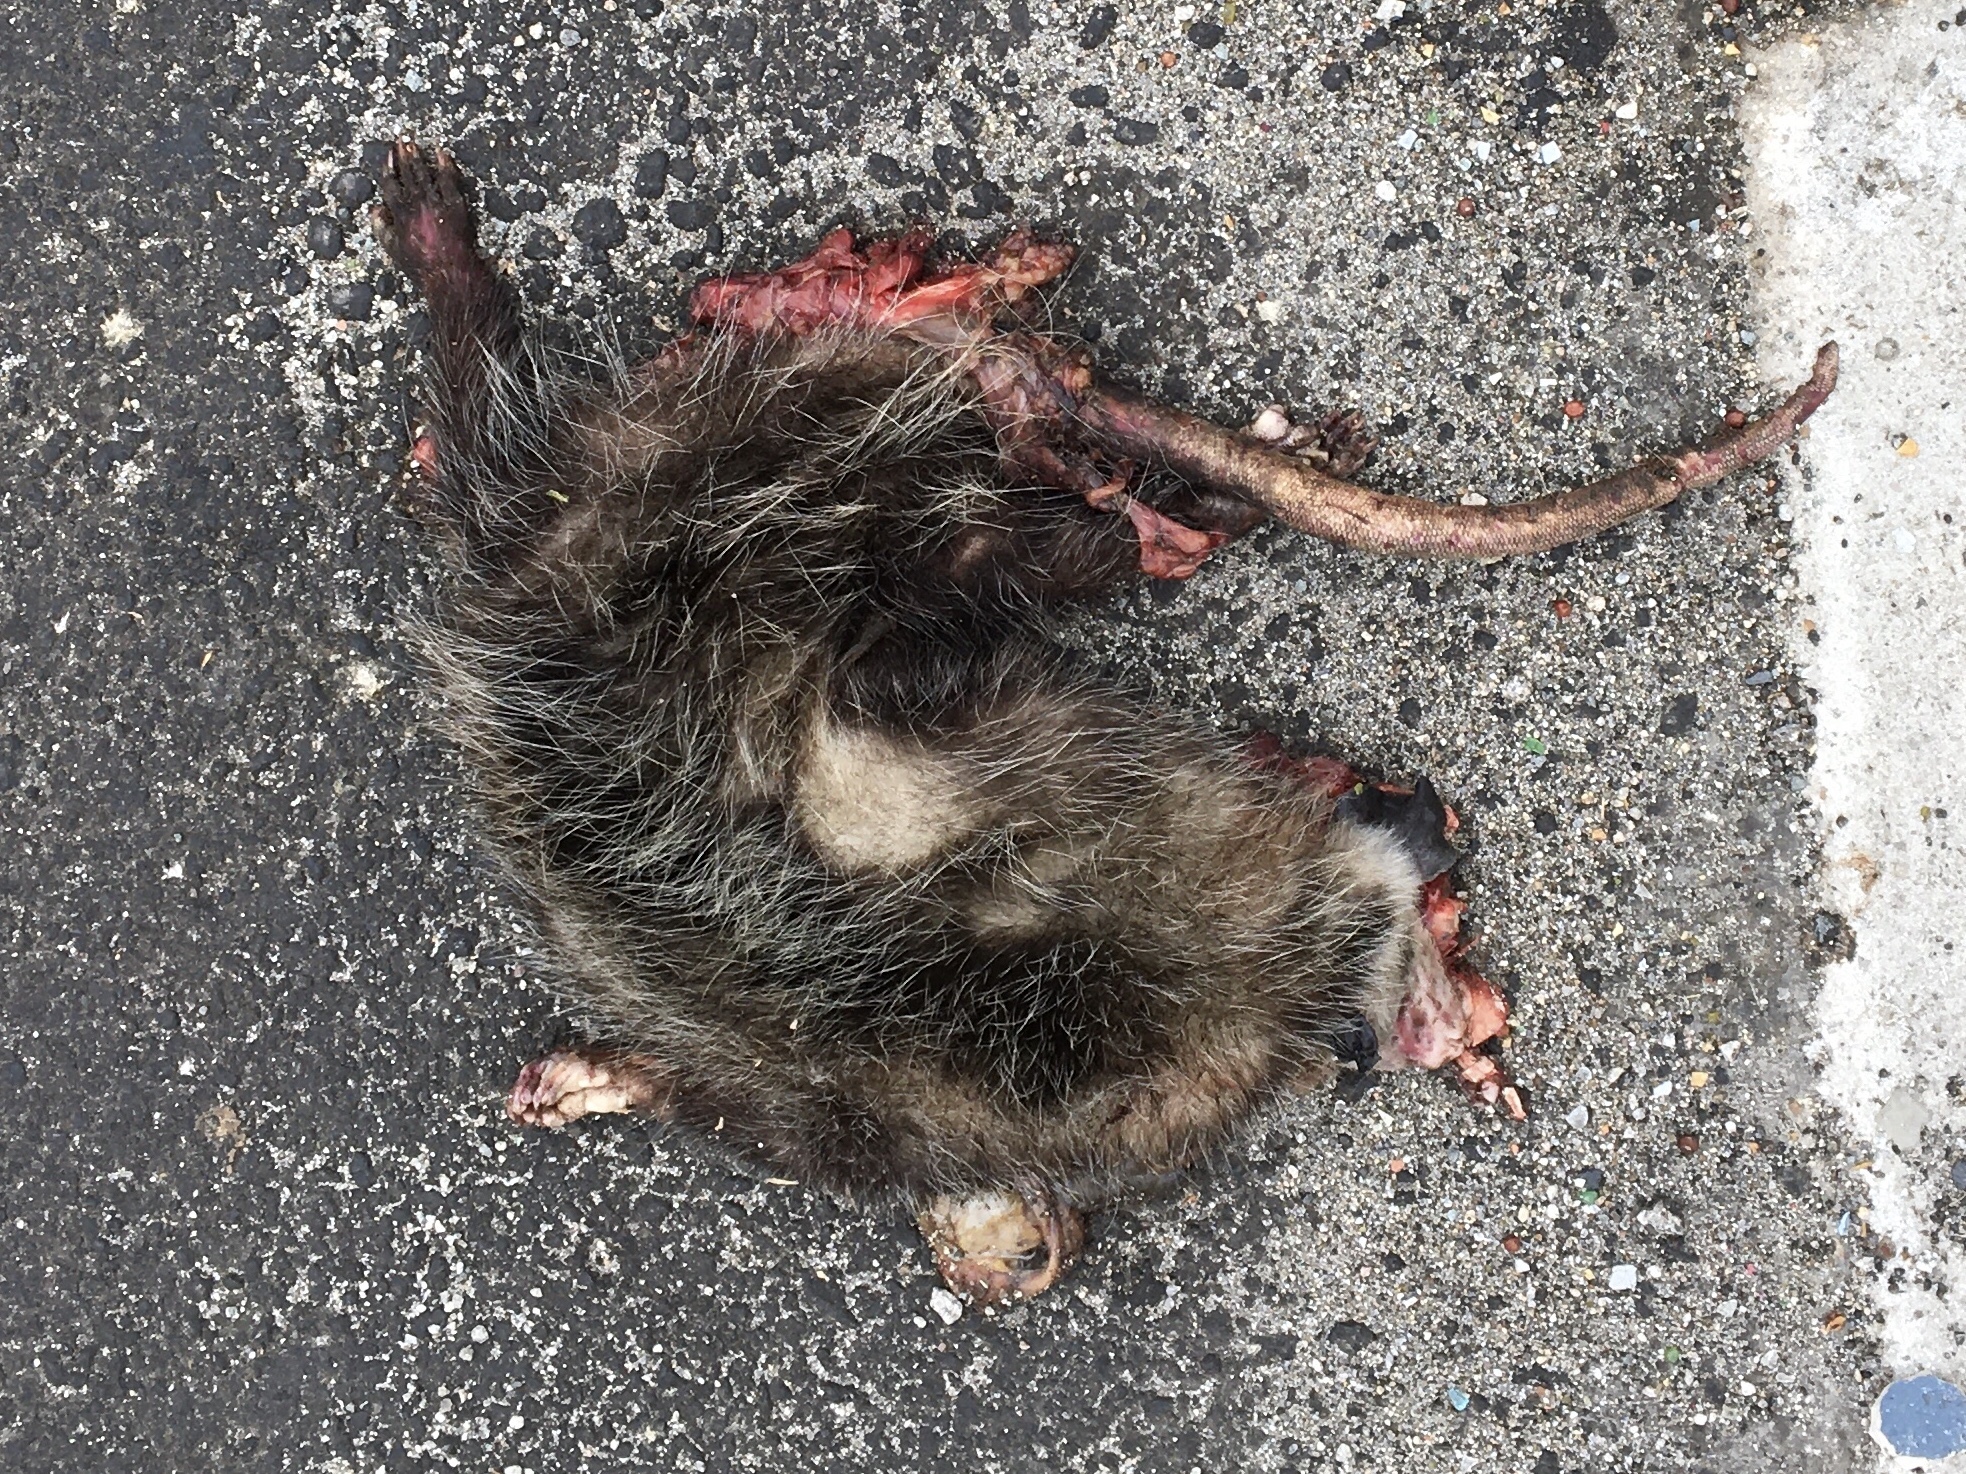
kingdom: Animalia
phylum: Chordata
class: Mammalia
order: Didelphimorphia
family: Didelphidae
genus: Didelphis
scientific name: Didelphis virginiana
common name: Virginia opossum
